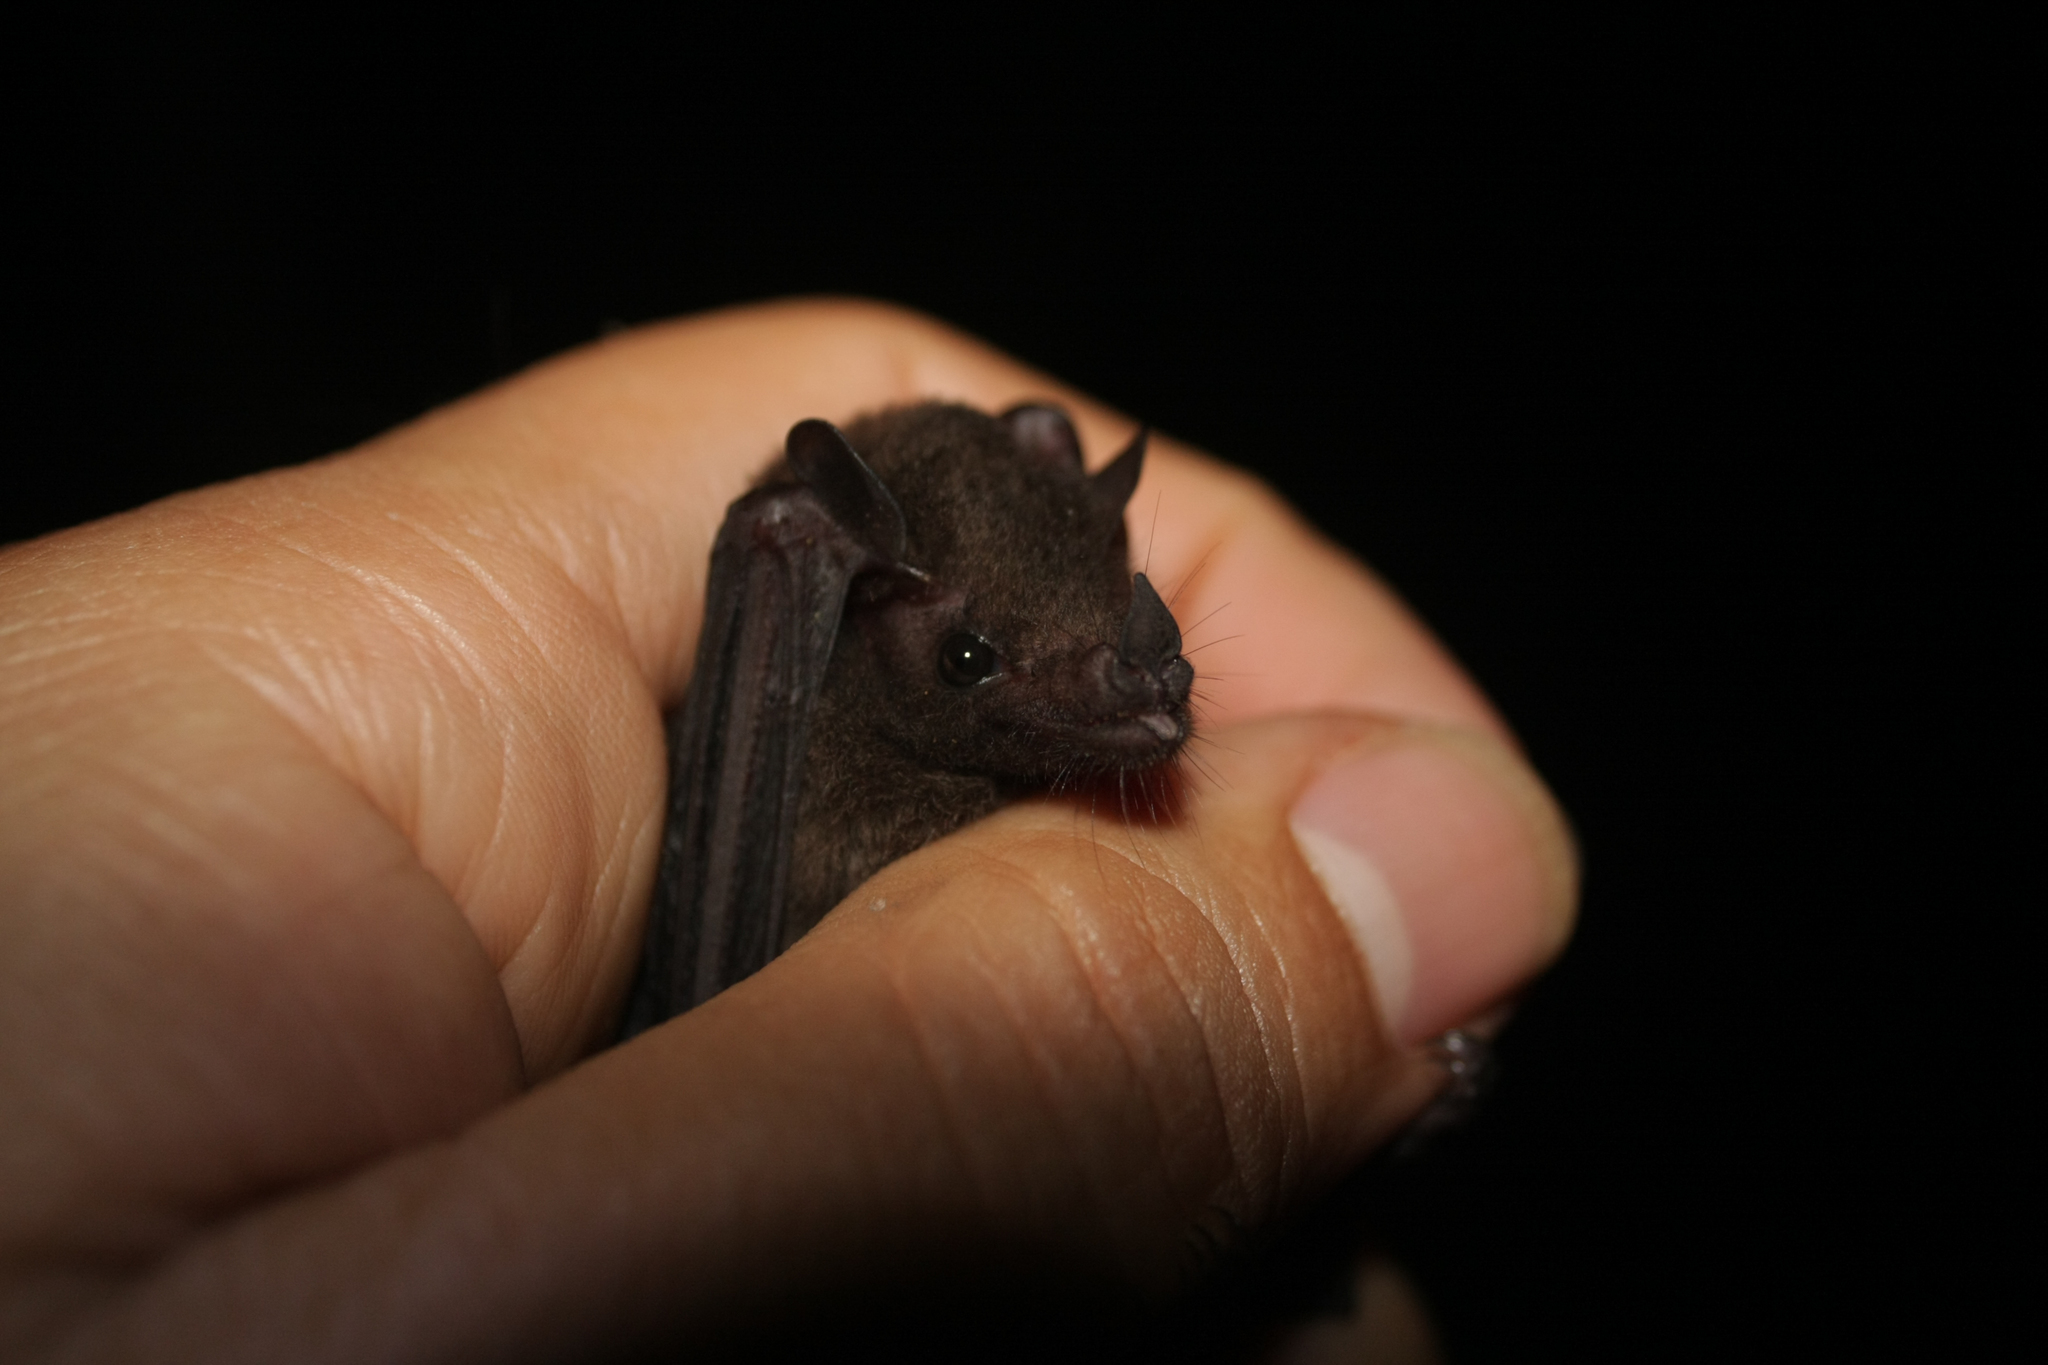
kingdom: Animalia
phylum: Chordata
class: Mammalia
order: Chiroptera
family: Phyllostomidae
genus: Glossophaga
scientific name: Glossophaga leachii
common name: Gray's long-tongued bat
